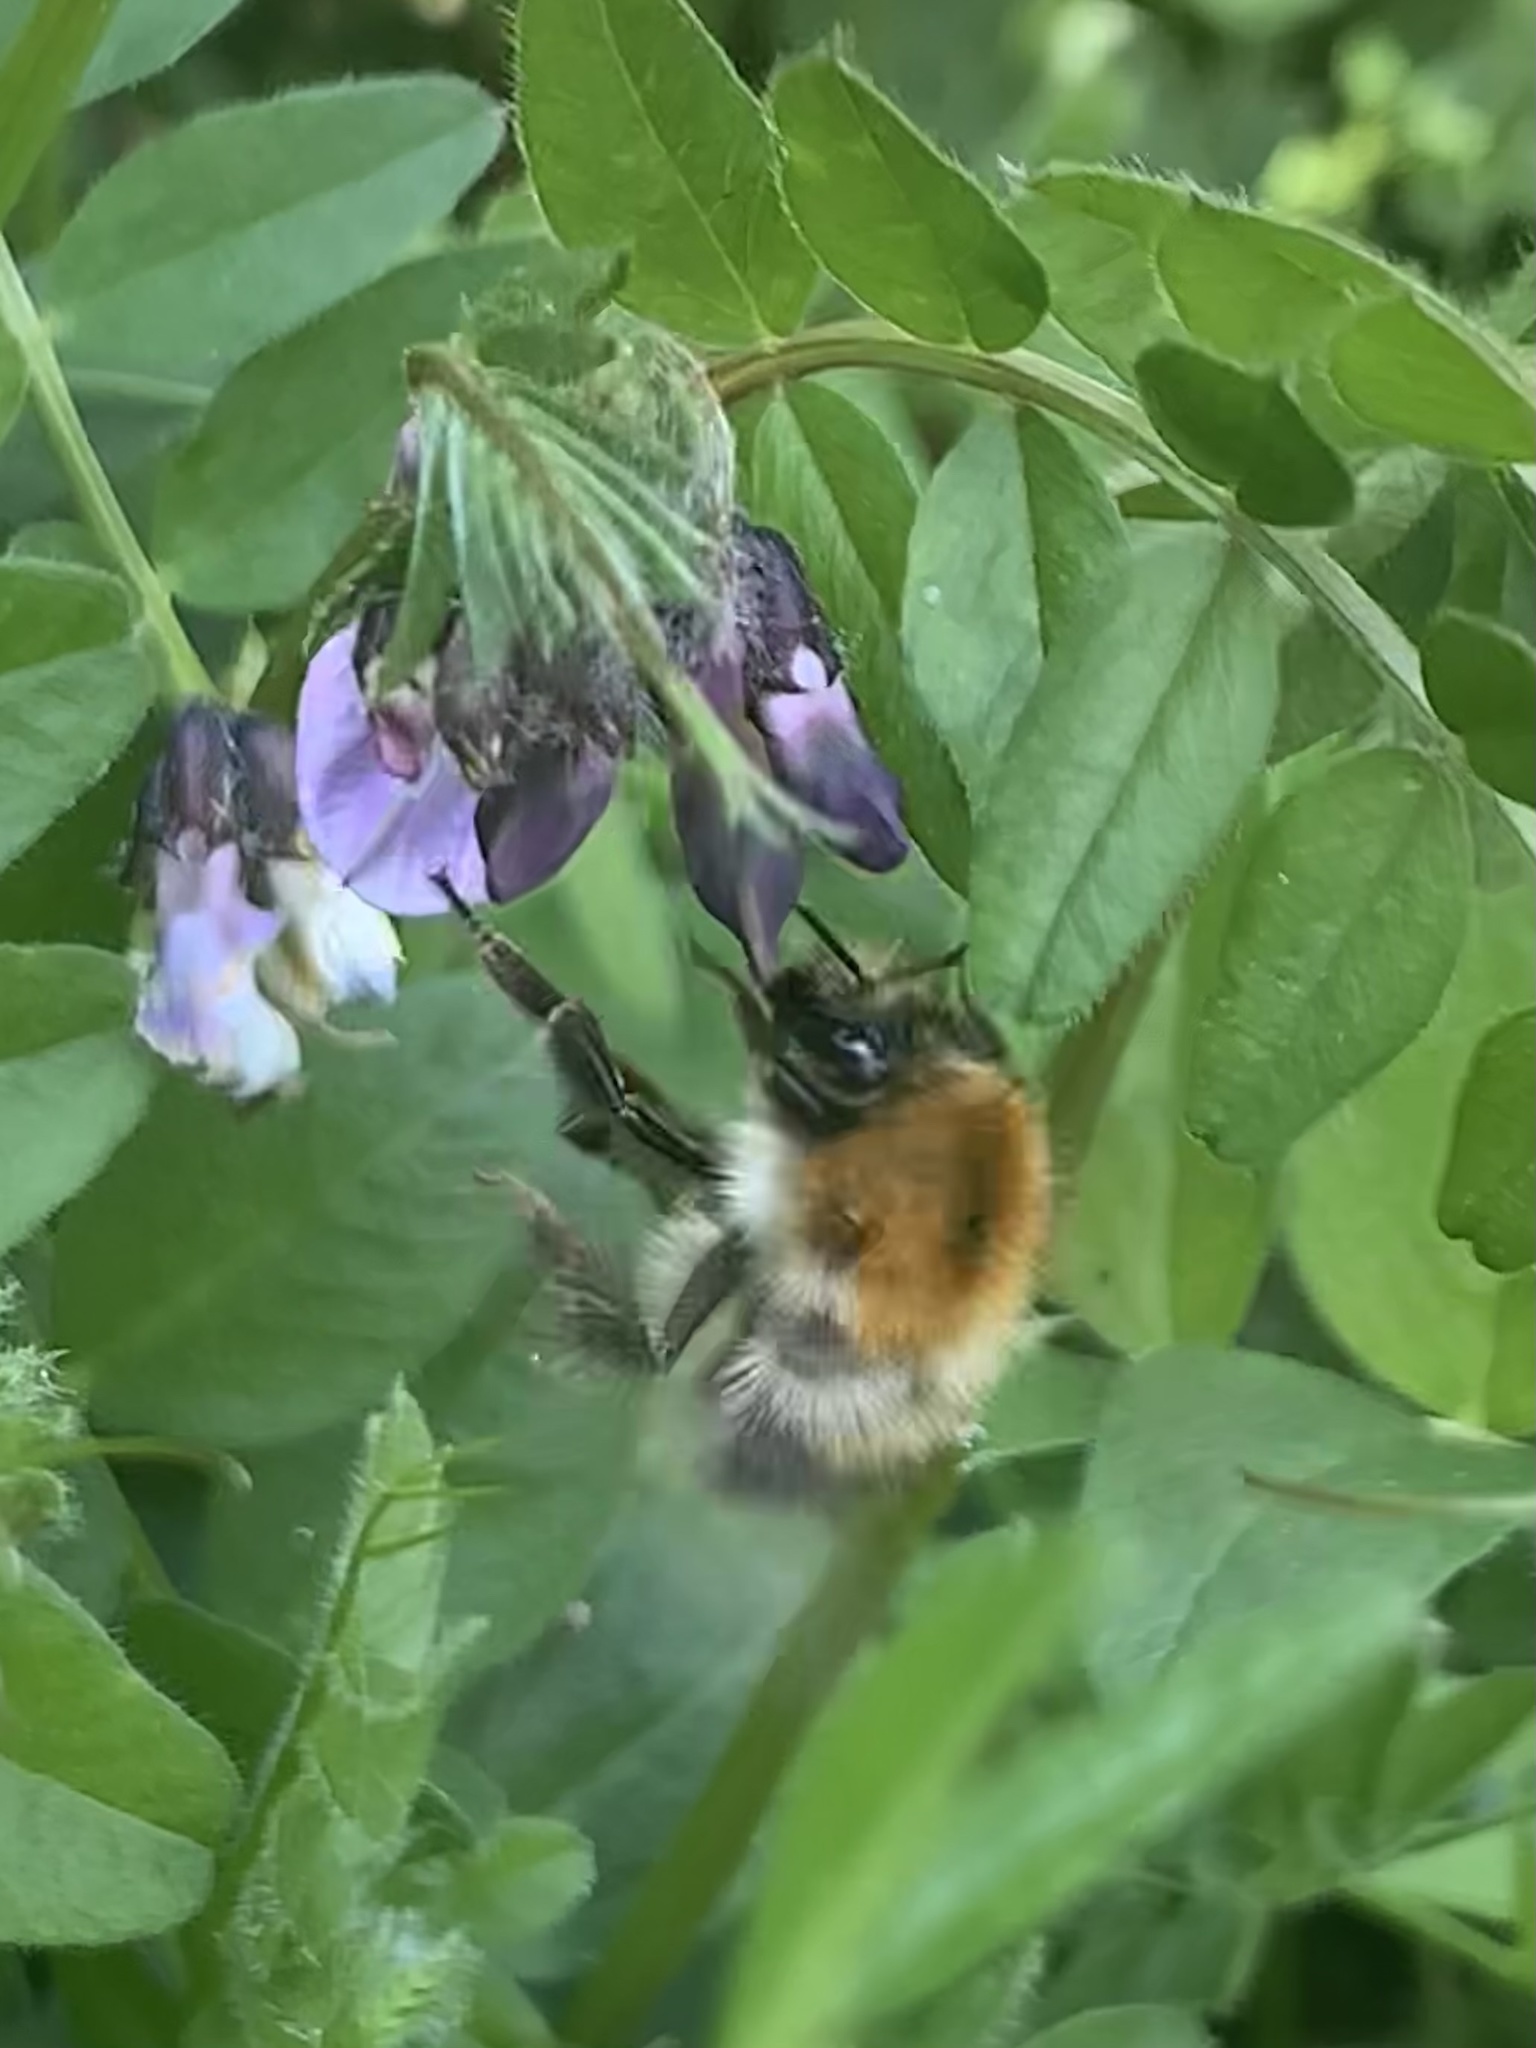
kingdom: Animalia
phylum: Arthropoda
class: Insecta
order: Hymenoptera
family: Apidae
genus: Bombus
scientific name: Bombus pascuorum
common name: Common carder bee
